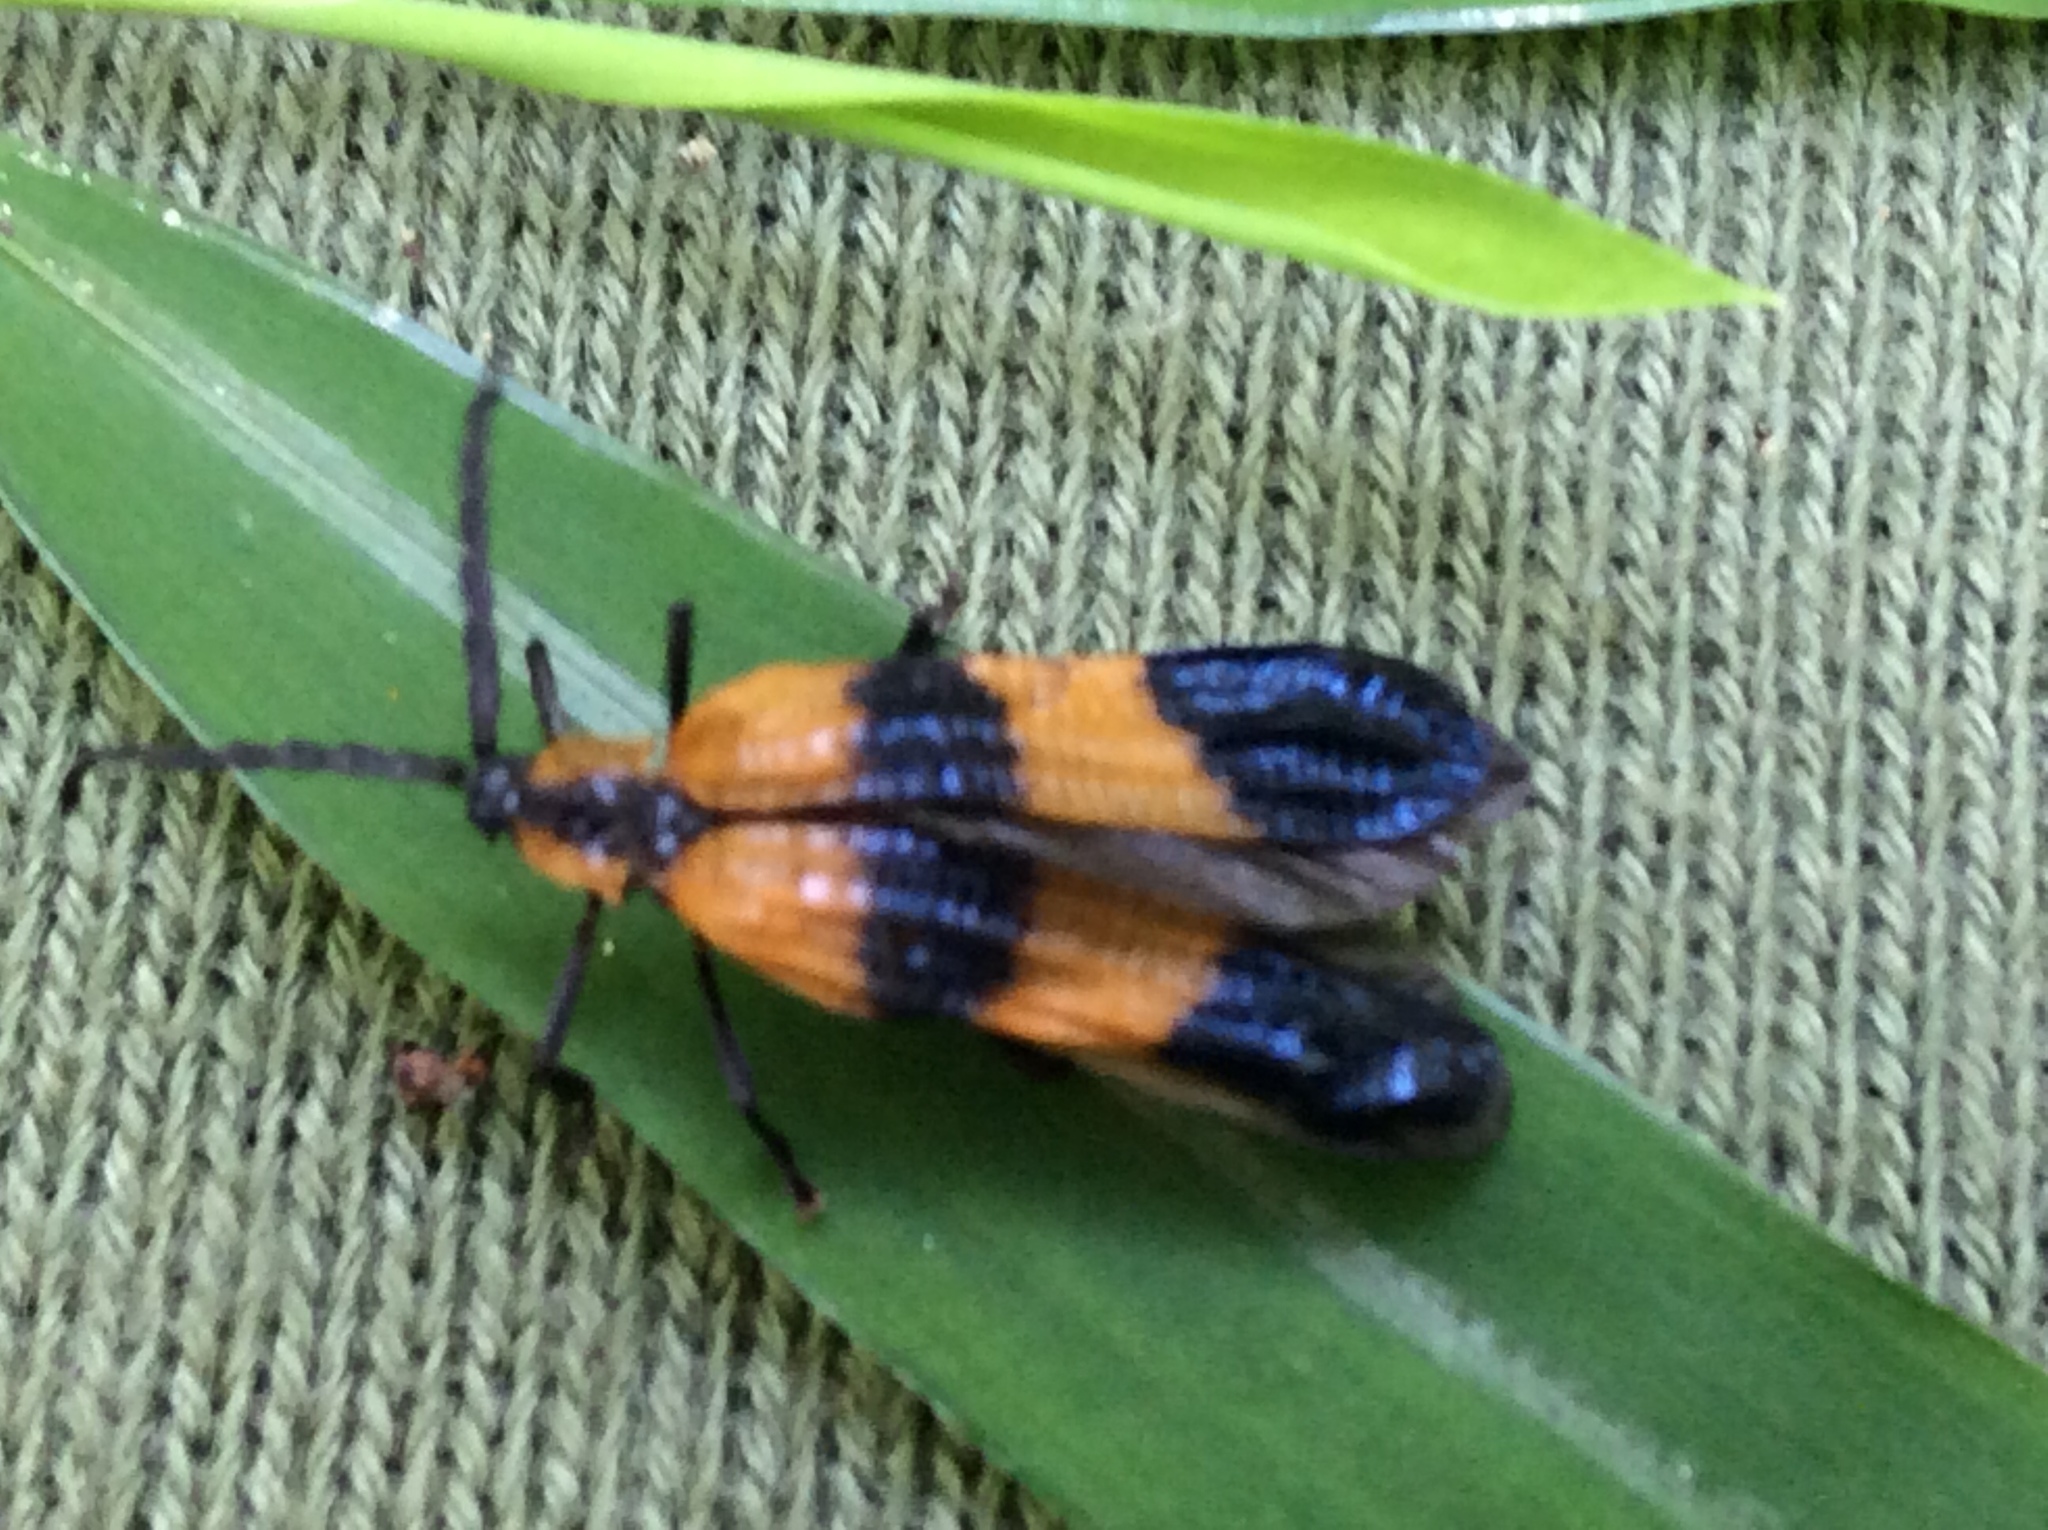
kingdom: Animalia
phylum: Arthropoda
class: Insecta
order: Coleoptera
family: Lycidae
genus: Calopteron
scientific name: Calopteron terminale
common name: End band net-winged beetle
